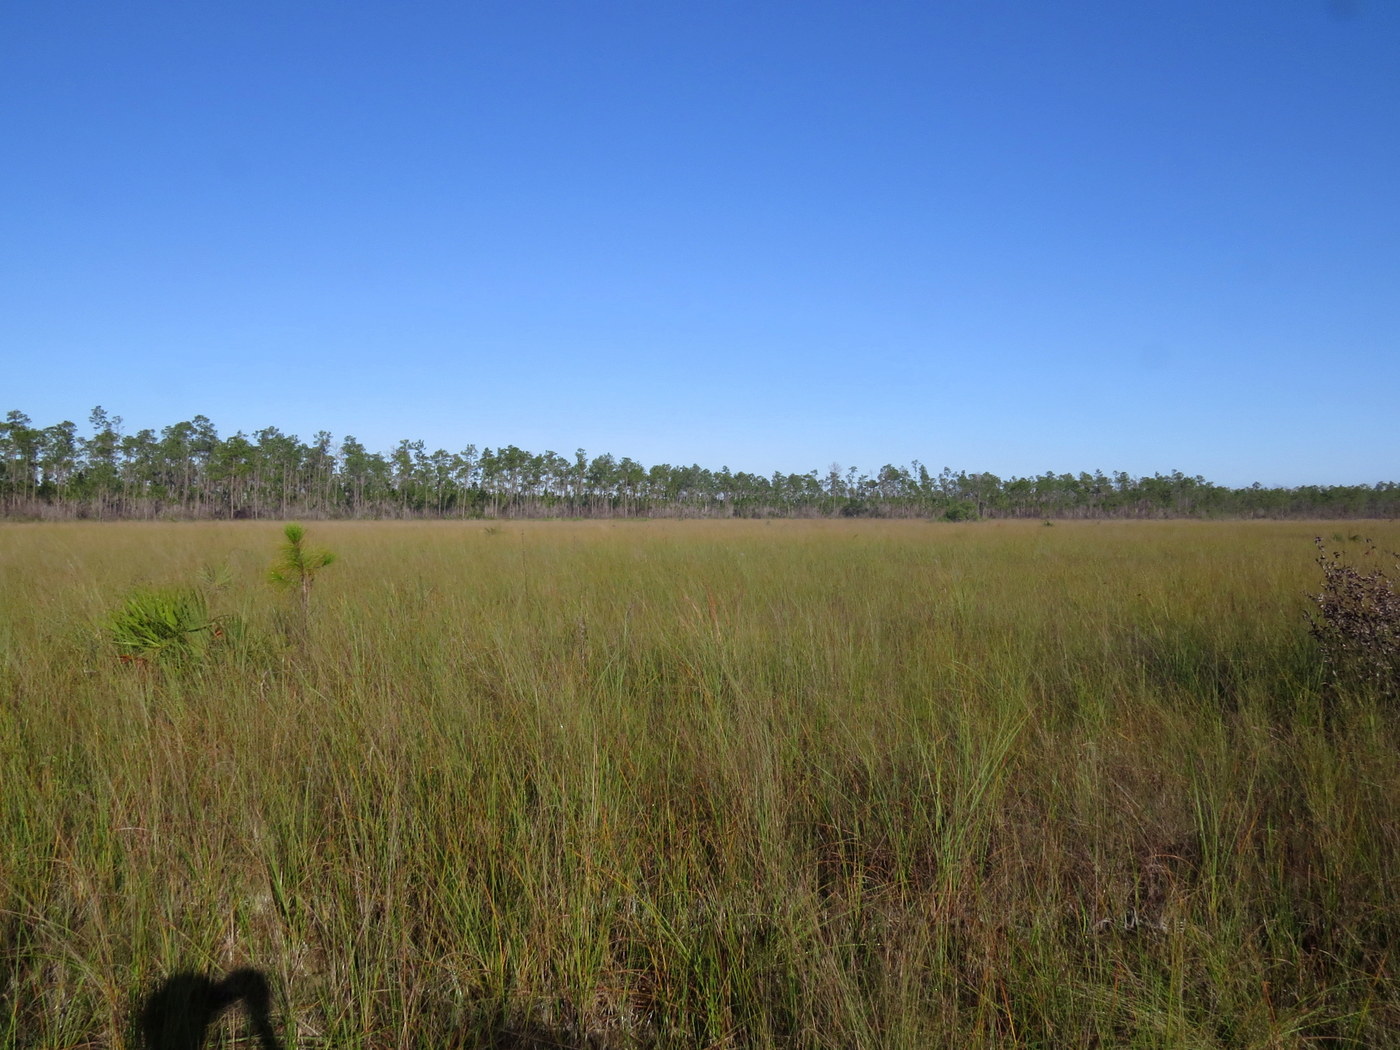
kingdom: Plantae
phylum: Tracheophyta
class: Liliopsida
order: Poales
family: Cyperaceae
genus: Cladium
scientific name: Cladium mariscus
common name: Great fen-sedge
